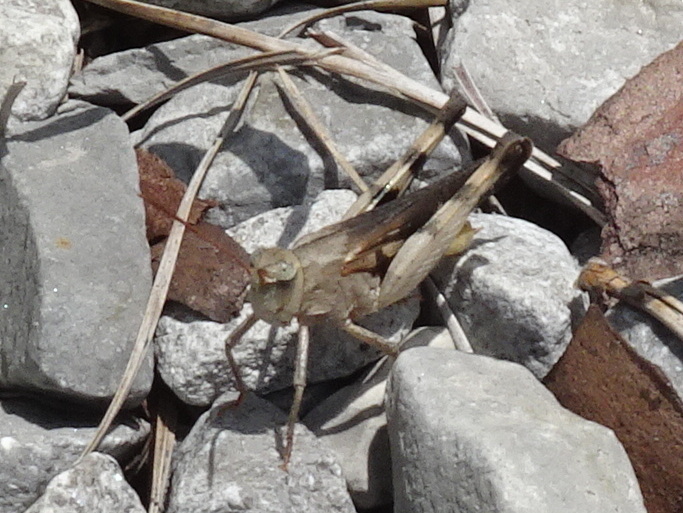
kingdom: Animalia
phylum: Arthropoda
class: Insecta
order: Orthoptera
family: Acrididae
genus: Chortophaga
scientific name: Chortophaga viridifasciata
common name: Green-striped grasshopper
